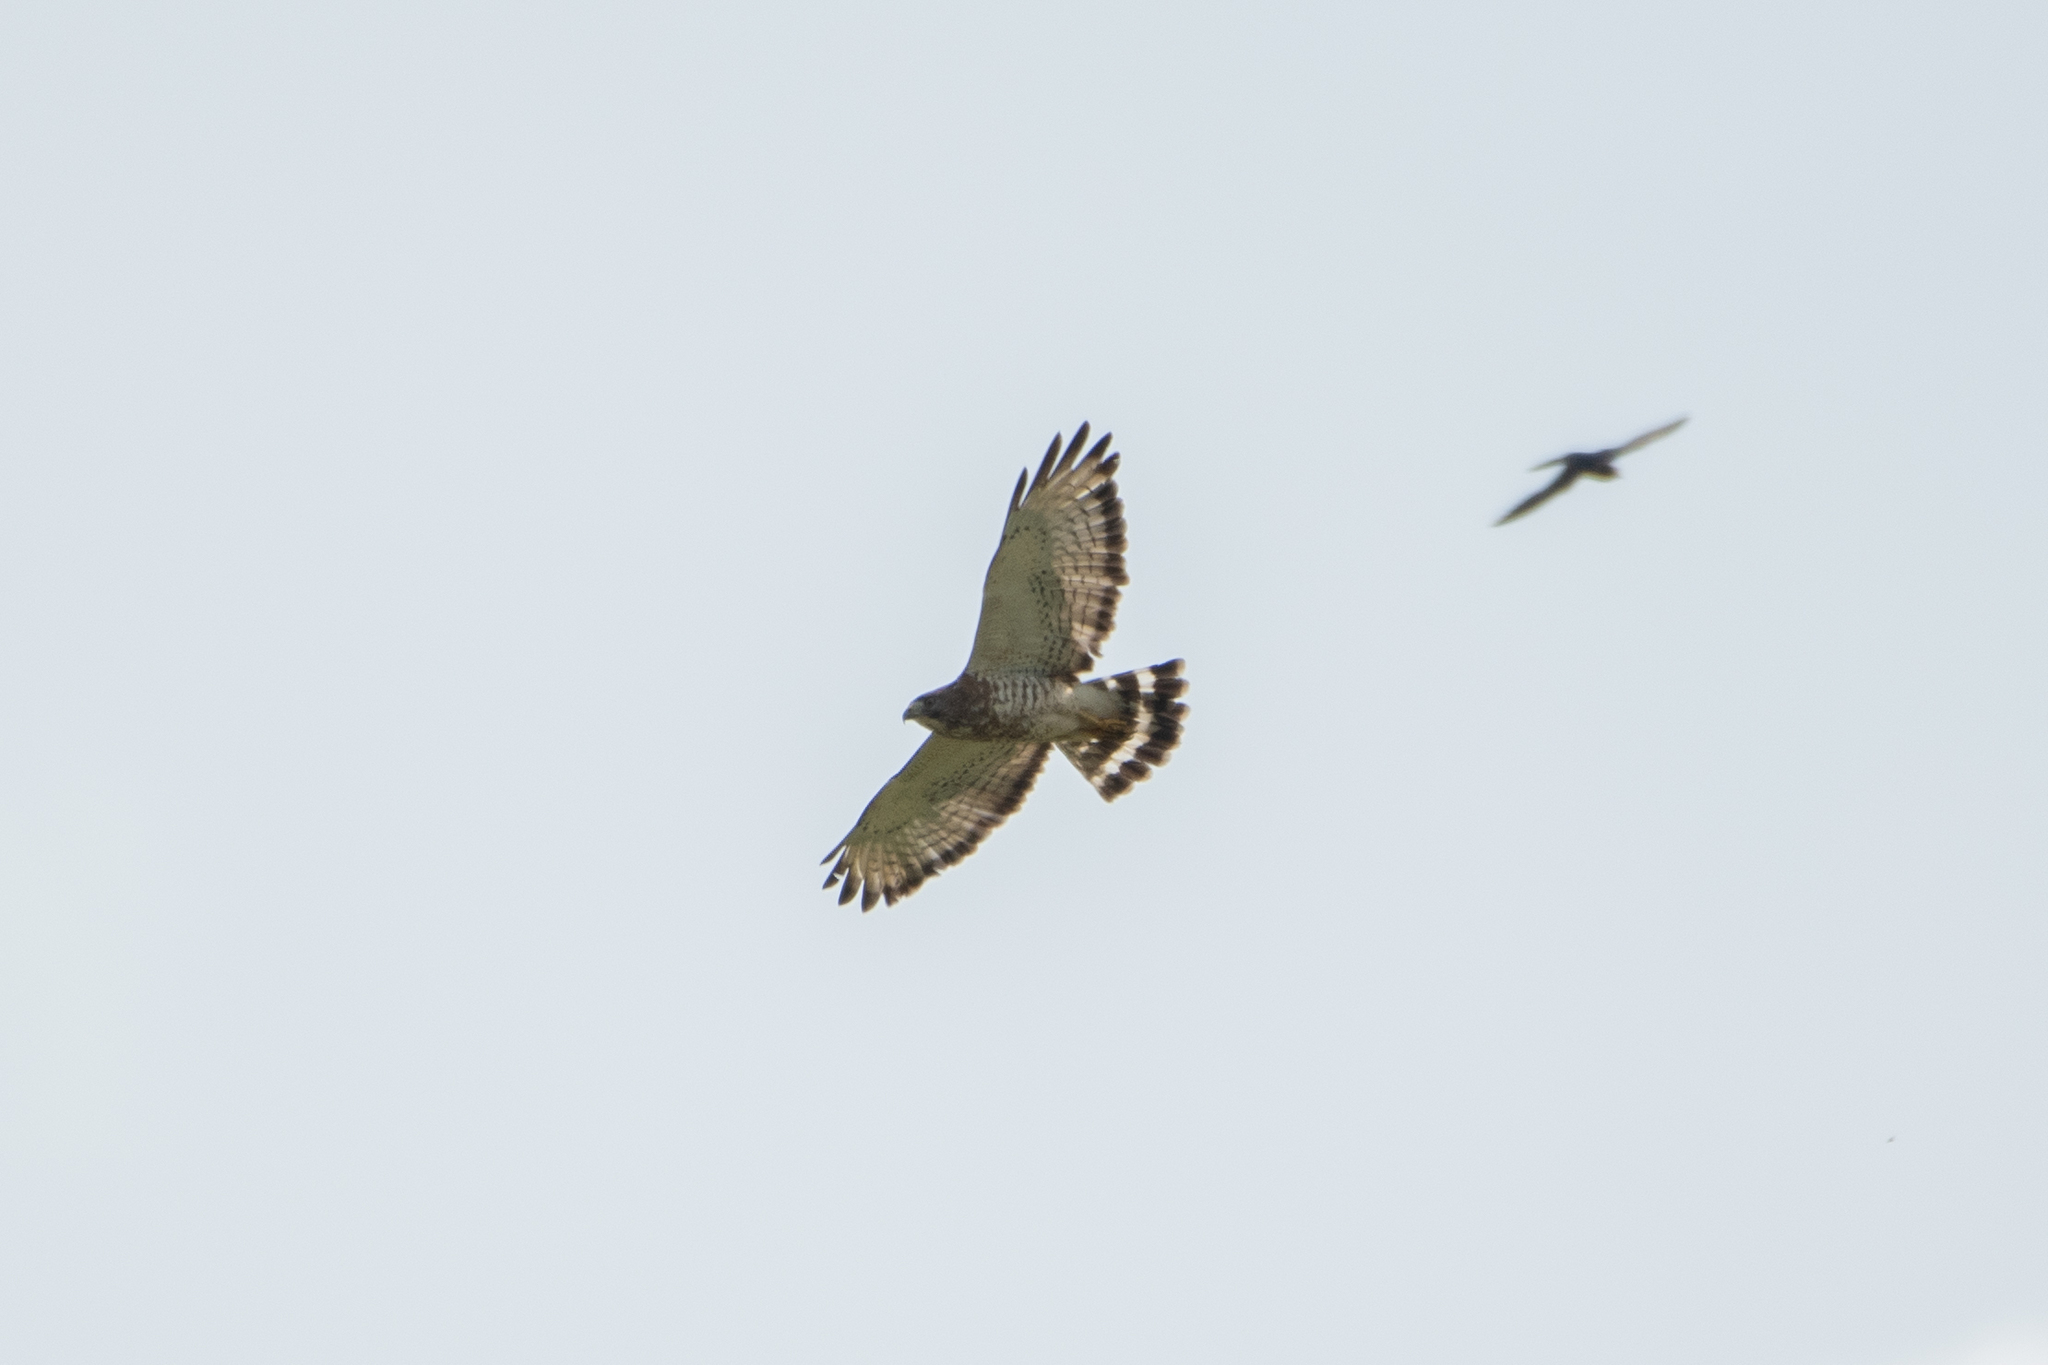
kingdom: Animalia
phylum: Chordata
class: Aves
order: Accipitriformes
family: Accipitridae
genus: Buteo
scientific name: Buteo platypterus
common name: Broad-winged hawk
